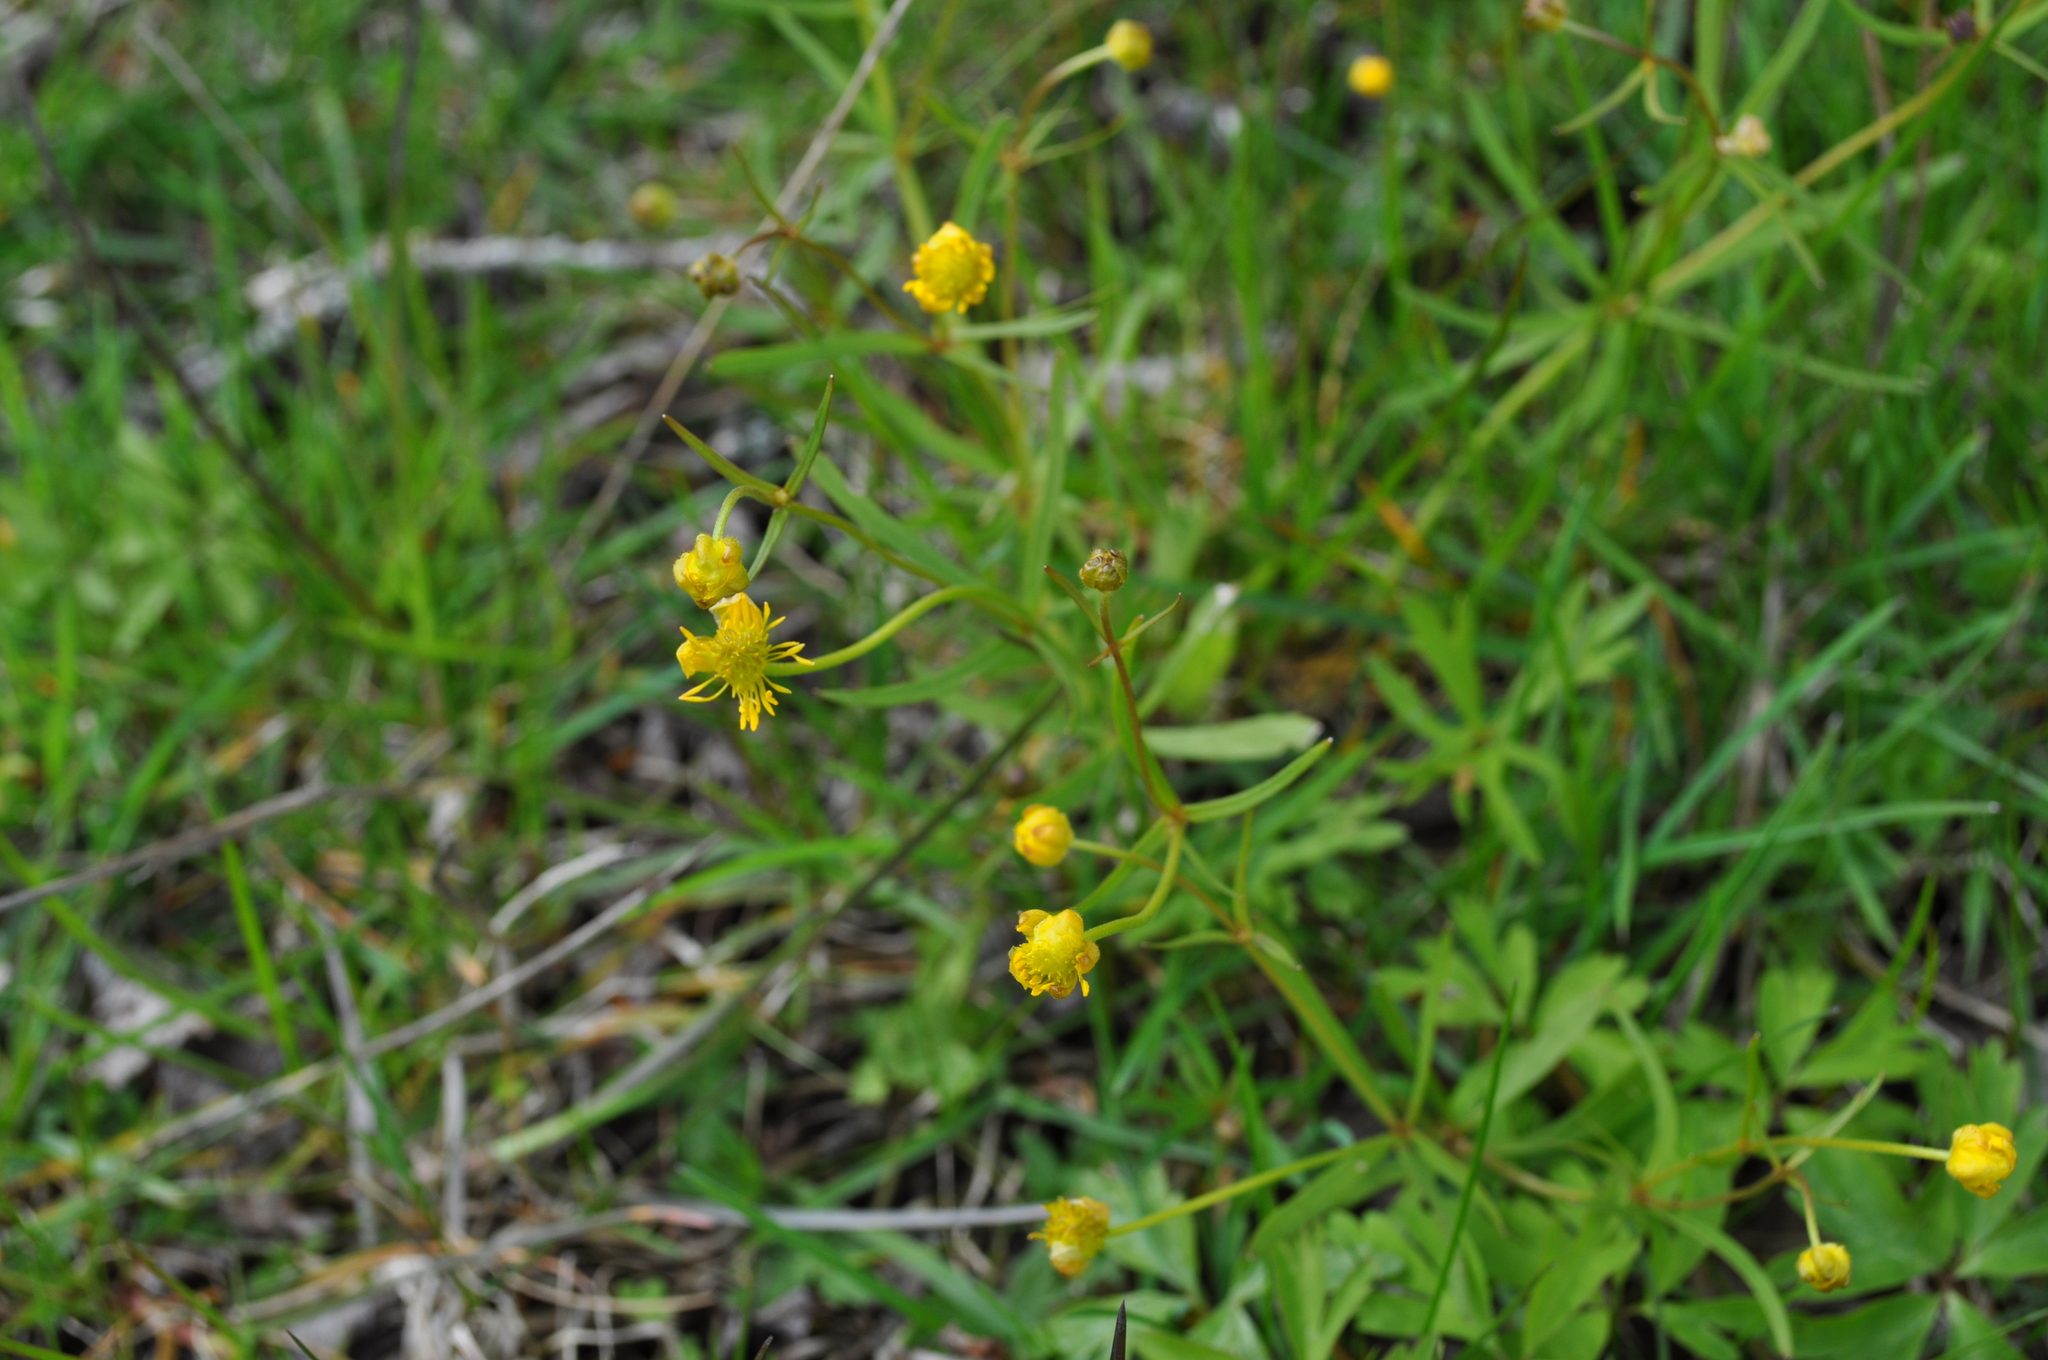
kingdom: Plantae
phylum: Tracheophyta
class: Magnoliopsida
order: Ranunculales
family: Ranunculaceae
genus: Ranunculus
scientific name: Ranunculus auricomus
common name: Goldilocks buttercup
